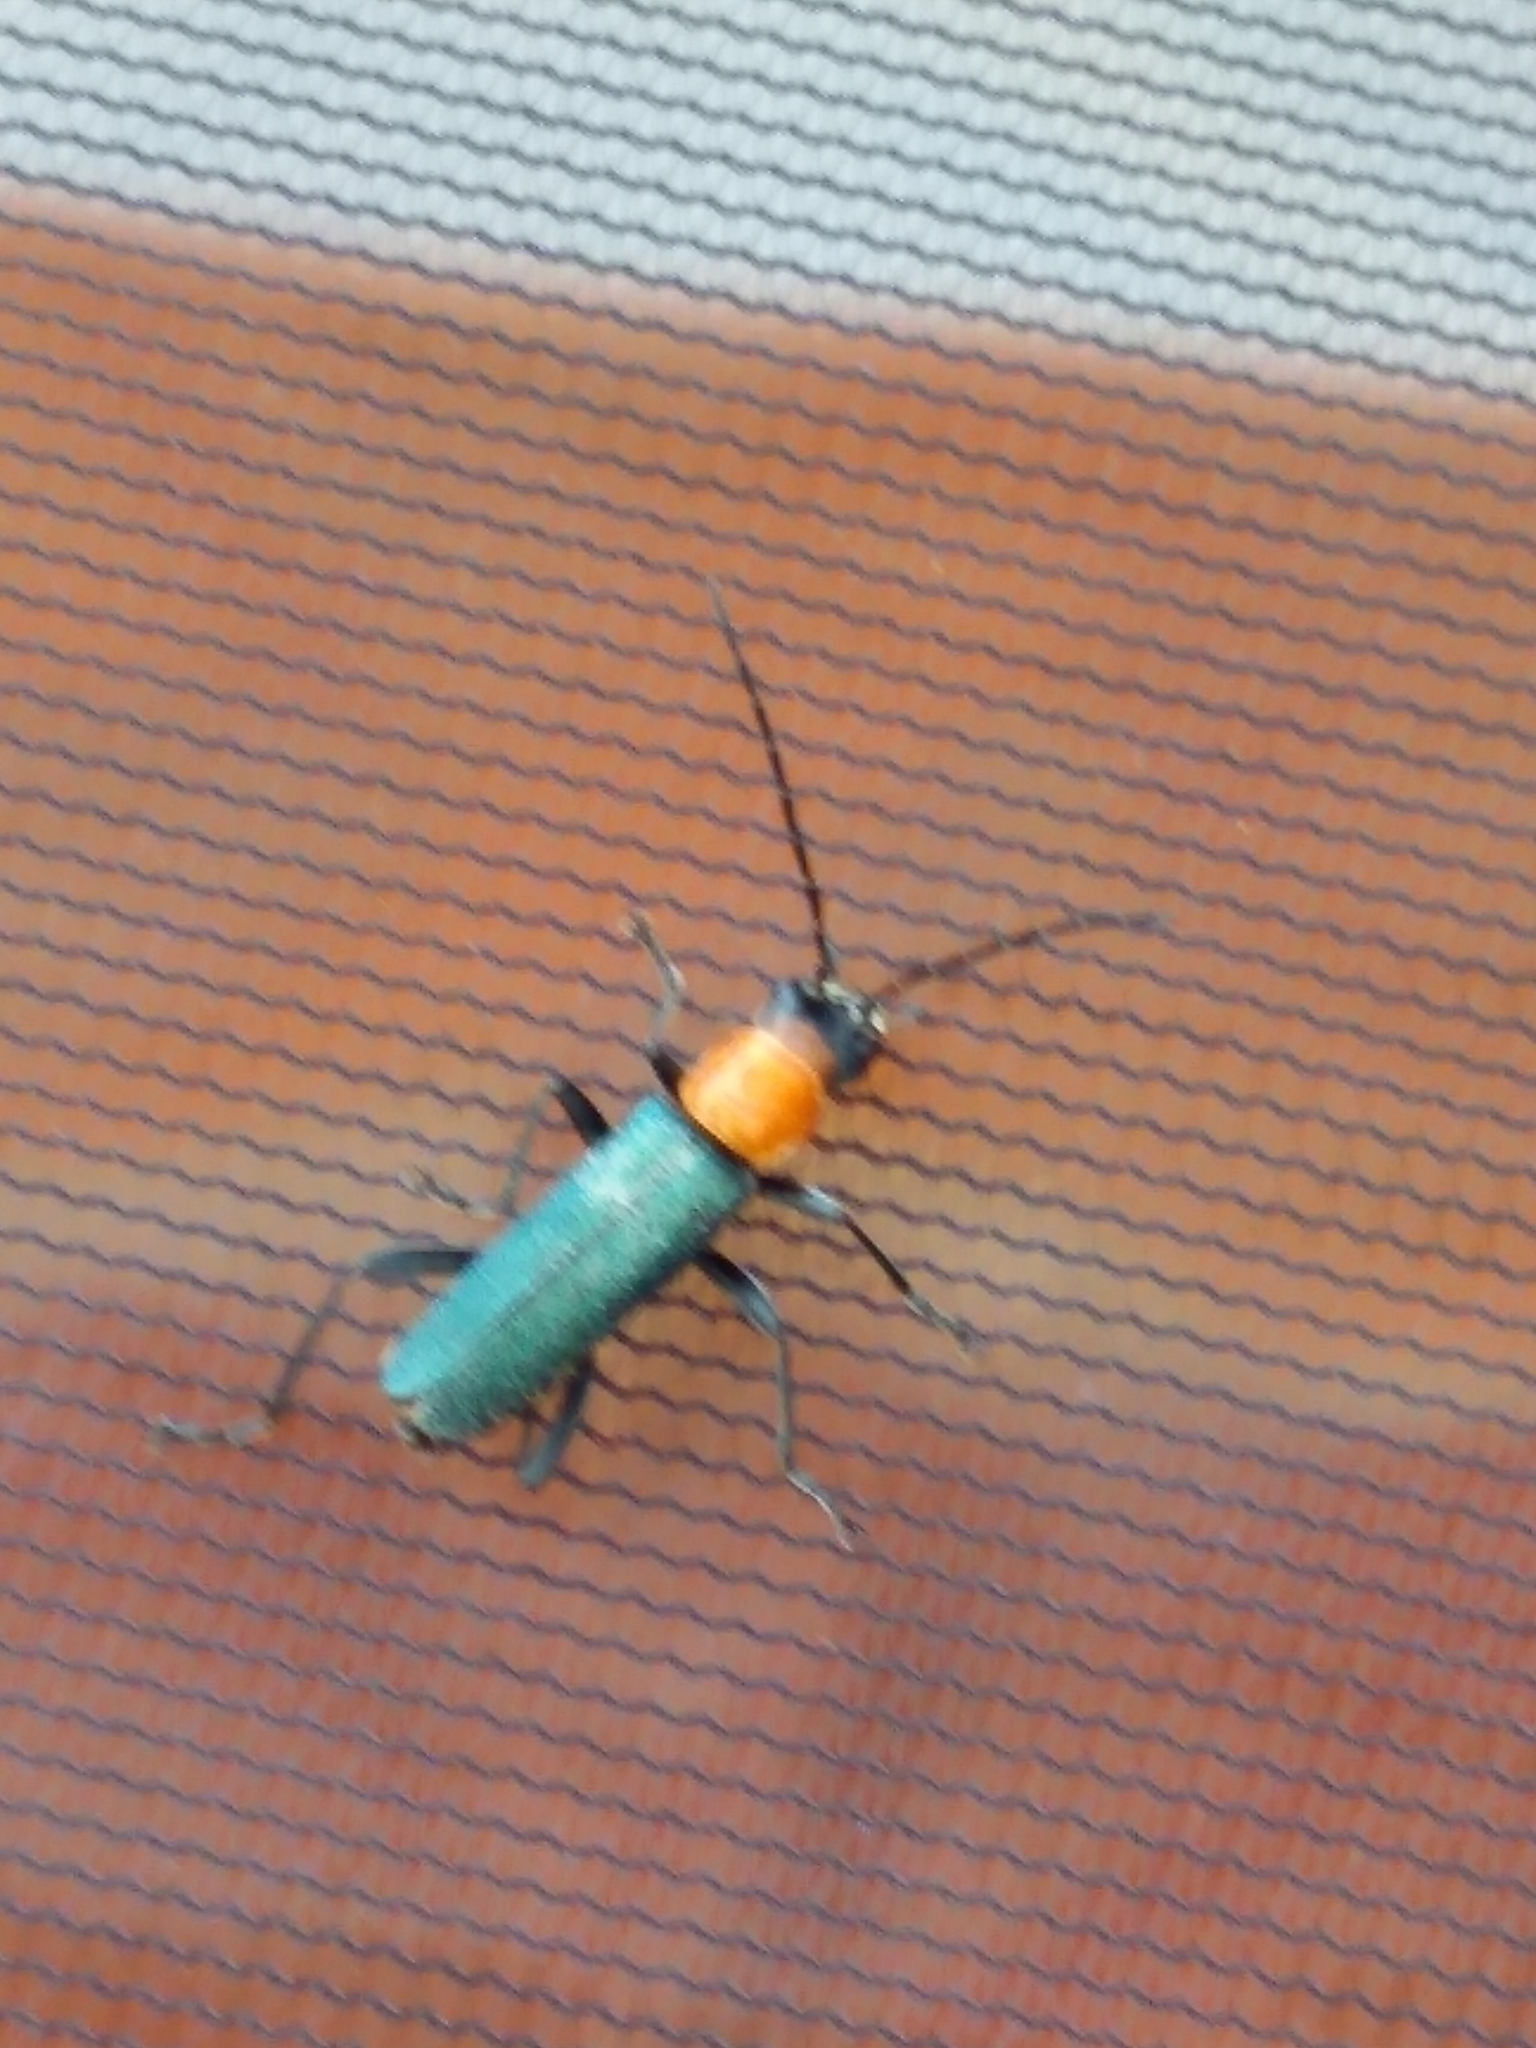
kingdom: Animalia
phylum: Arthropoda
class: Insecta
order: Coleoptera
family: Cantharidae
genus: Chauliognathus
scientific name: Chauliognathus
